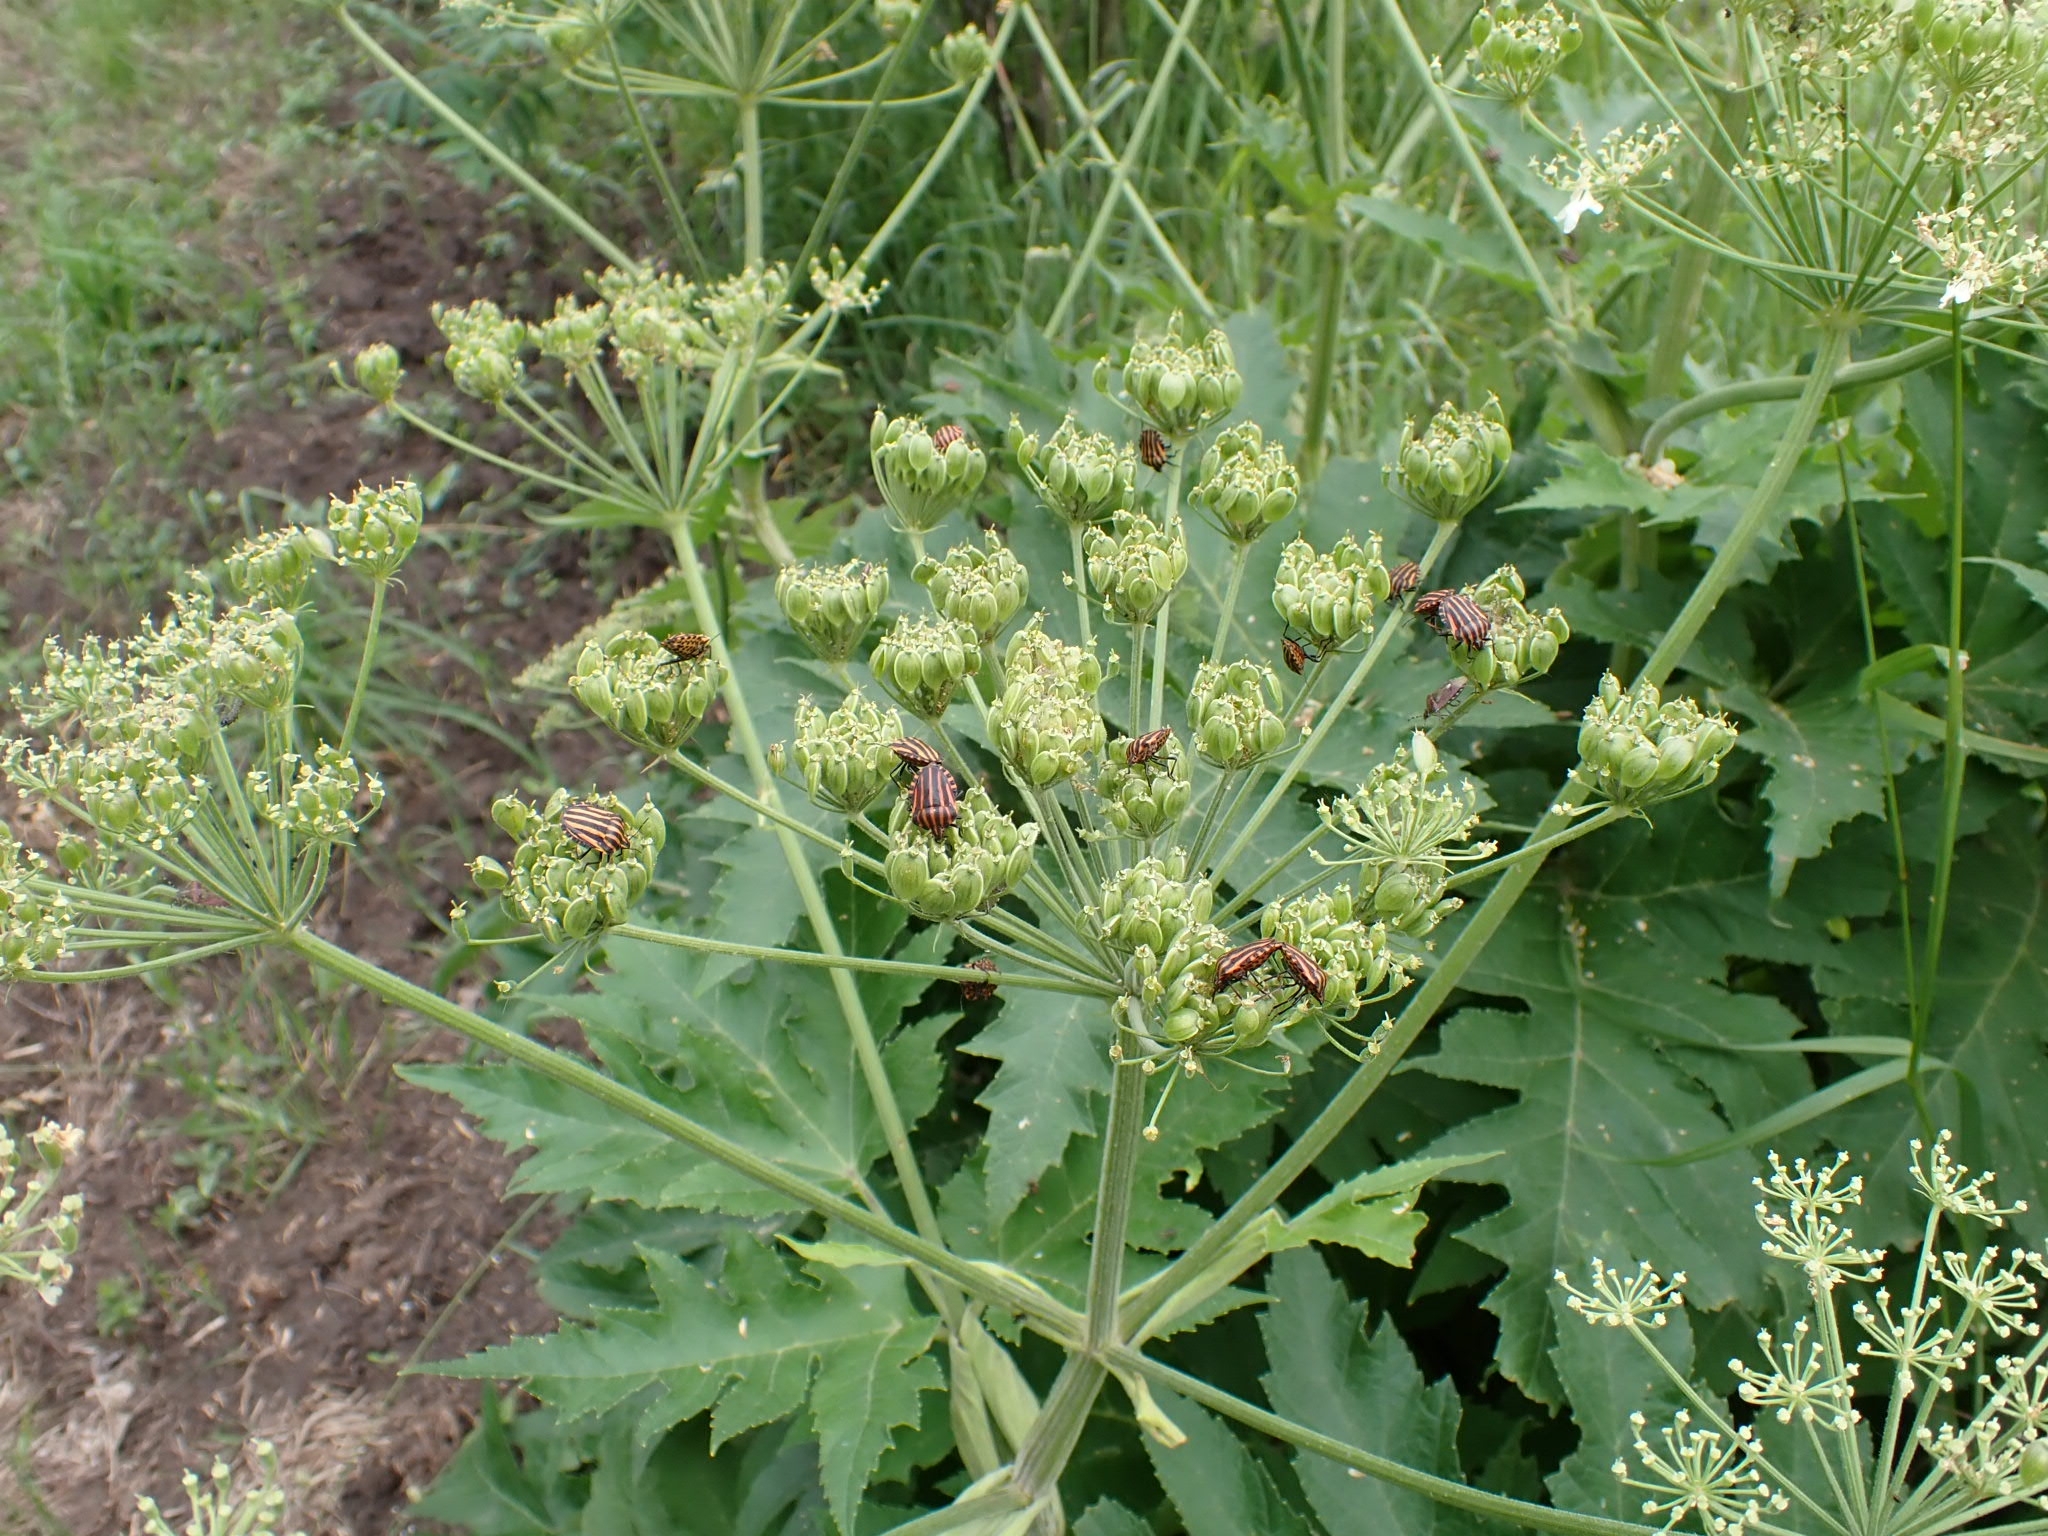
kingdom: Animalia
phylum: Arthropoda
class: Insecta
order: Hemiptera
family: Pentatomidae
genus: Graphosoma
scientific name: Graphosoma italicum
